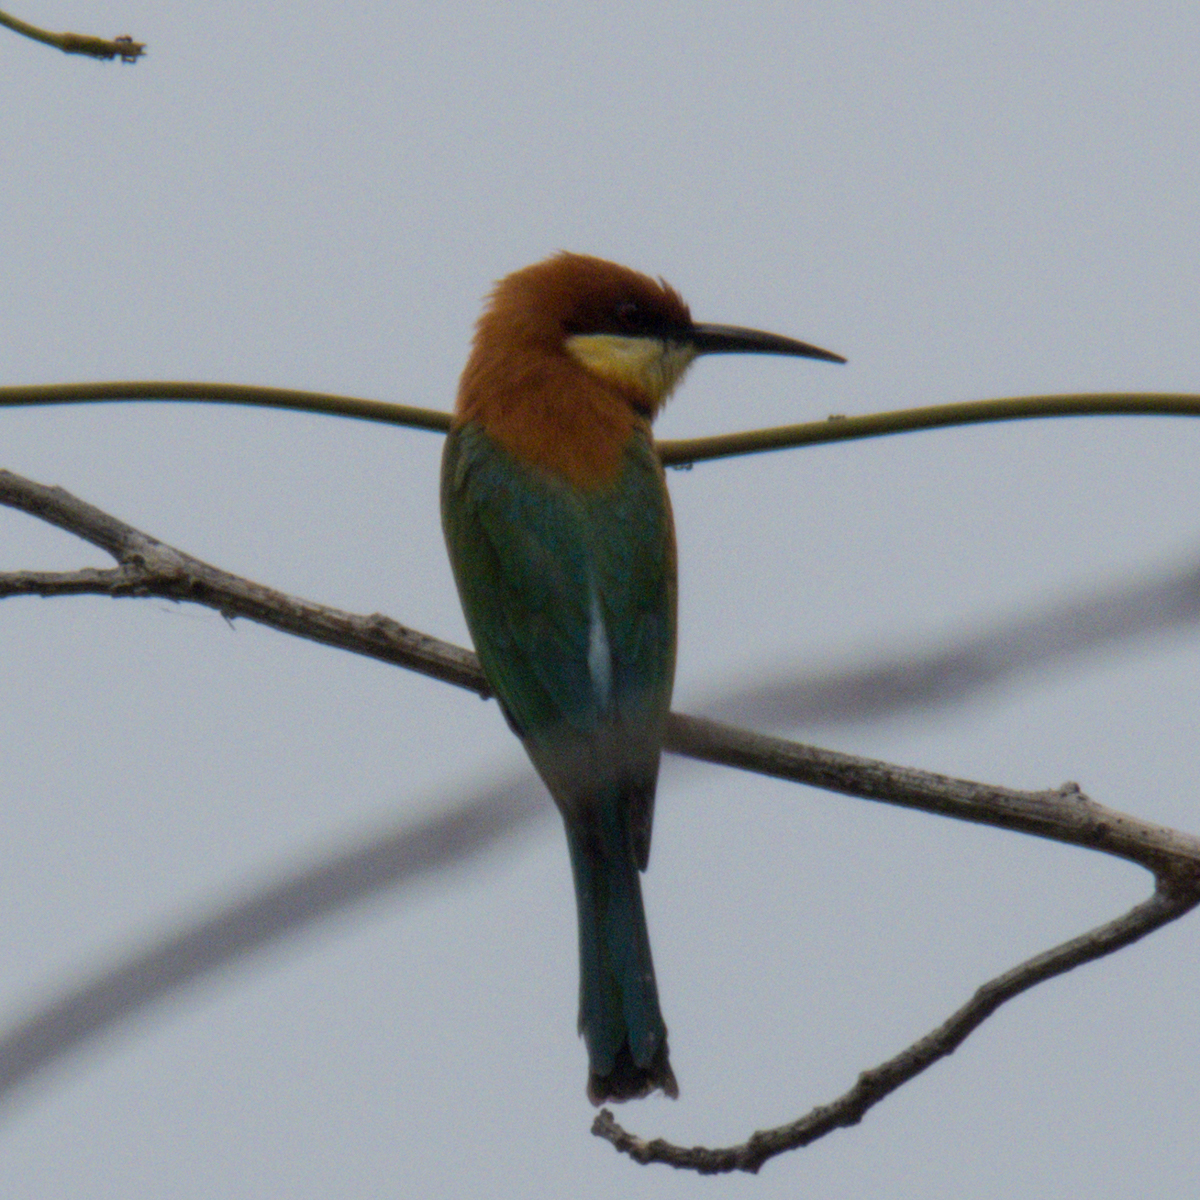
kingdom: Animalia
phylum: Chordata
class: Aves
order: Coraciiformes
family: Meropidae
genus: Merops
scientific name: Merops leschenaulti
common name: Chestnut-headed bee-eater
